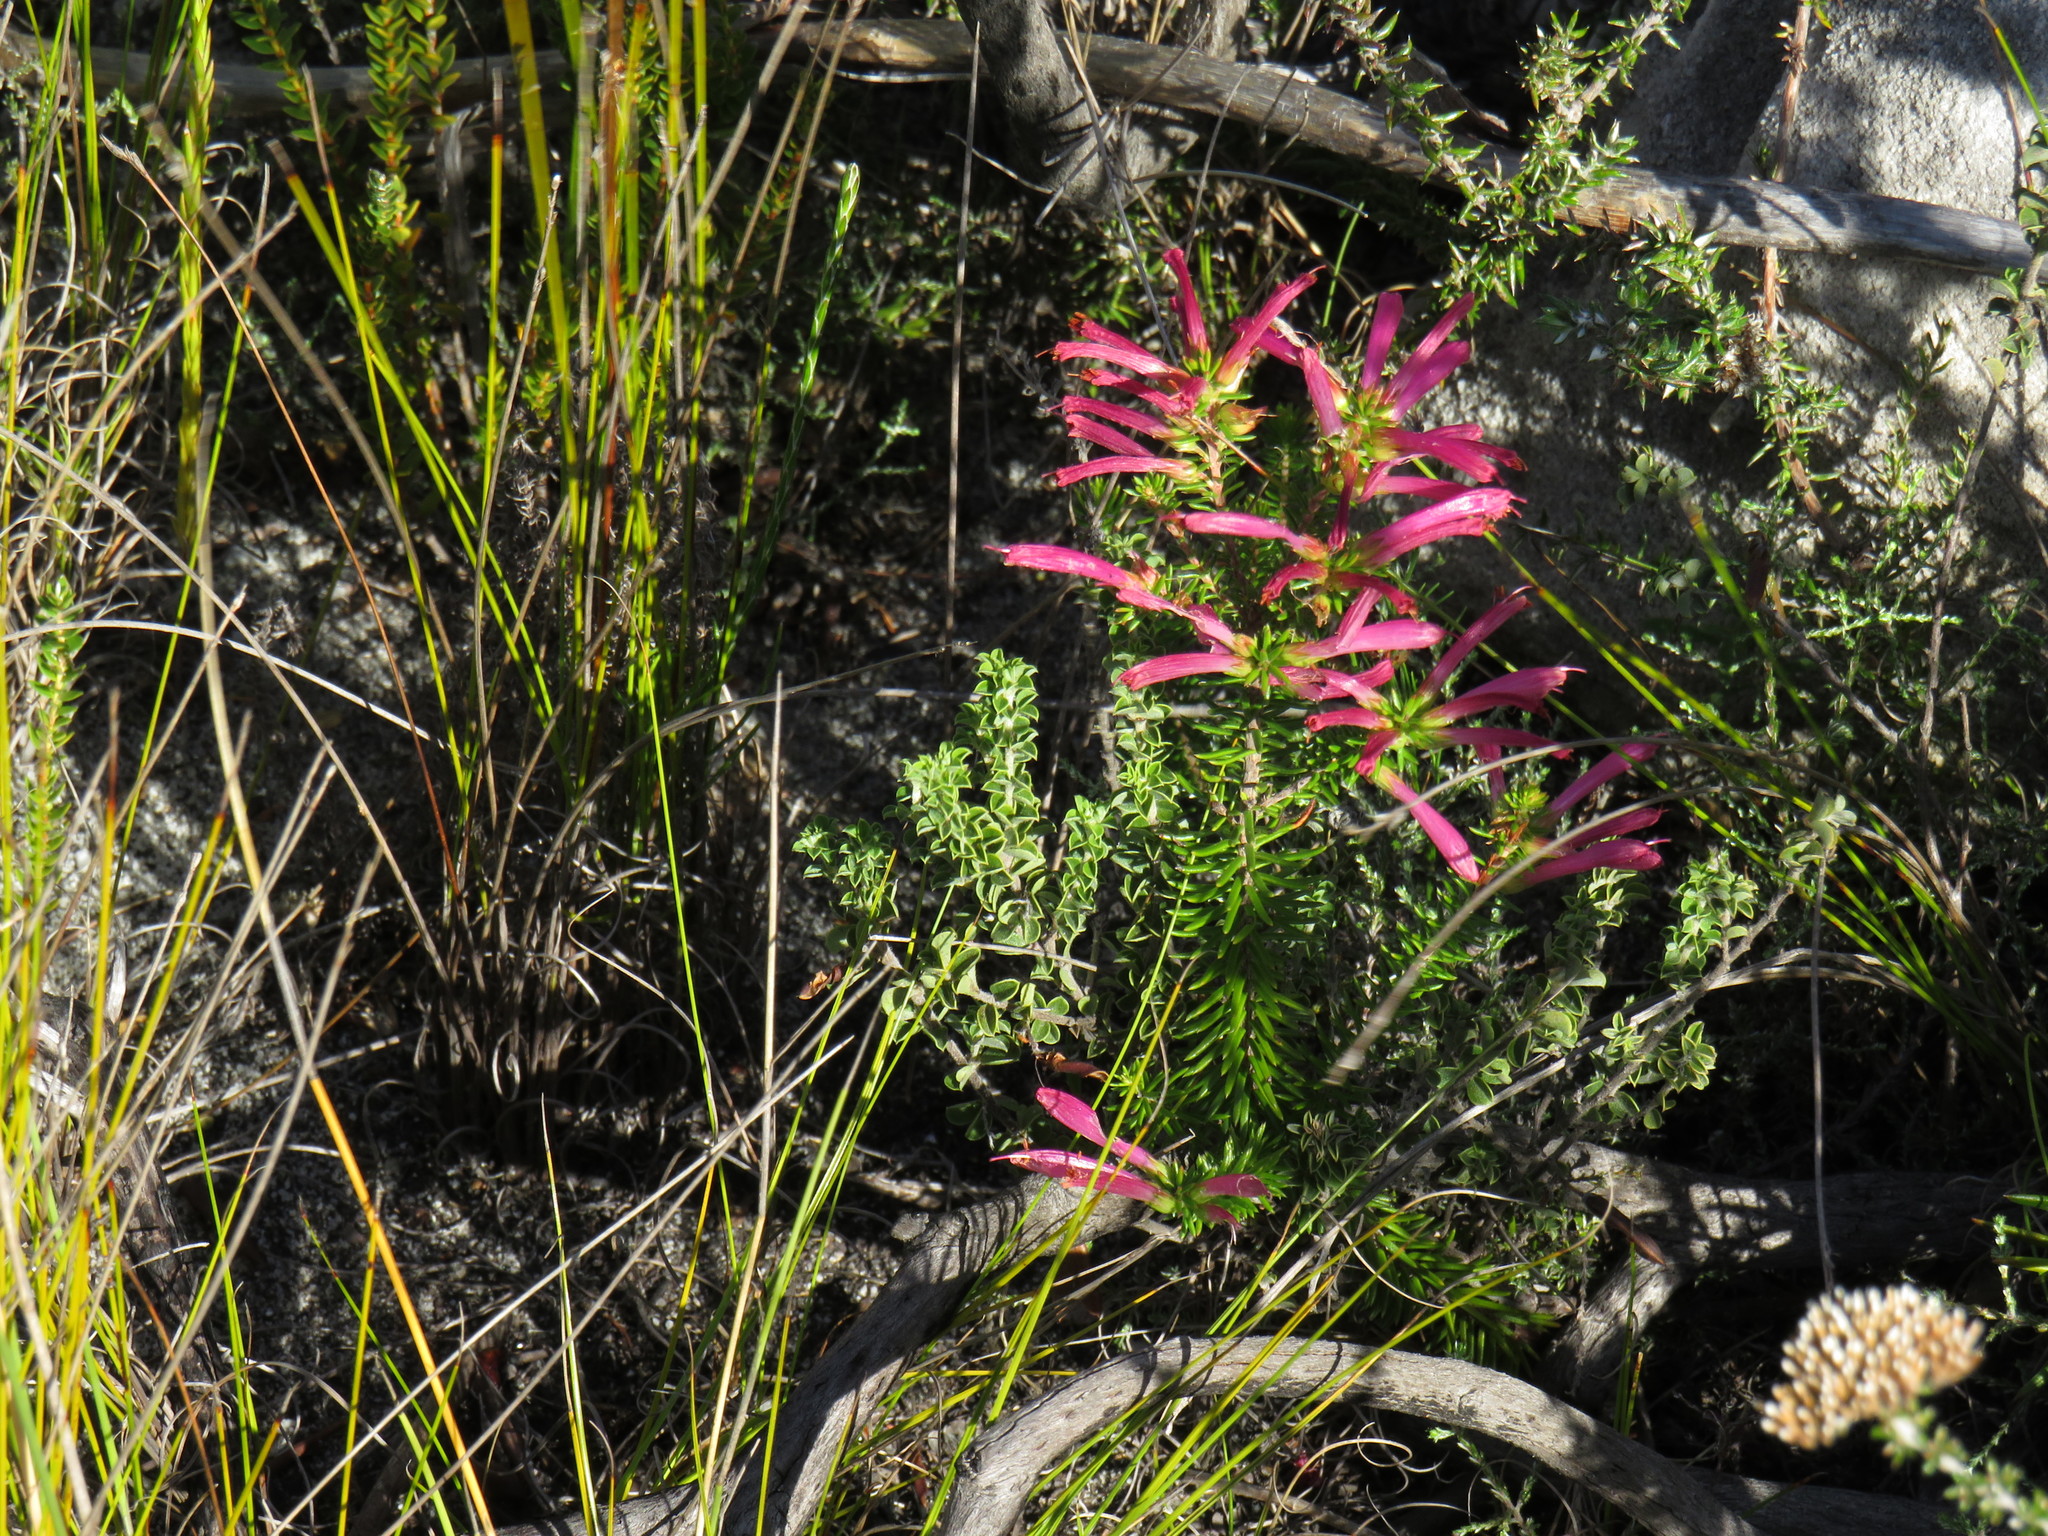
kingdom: Plantae
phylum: Tracheophyta
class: Magnoliopsida
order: Ericales
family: Ericaceae
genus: Erica
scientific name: Erica abietina
